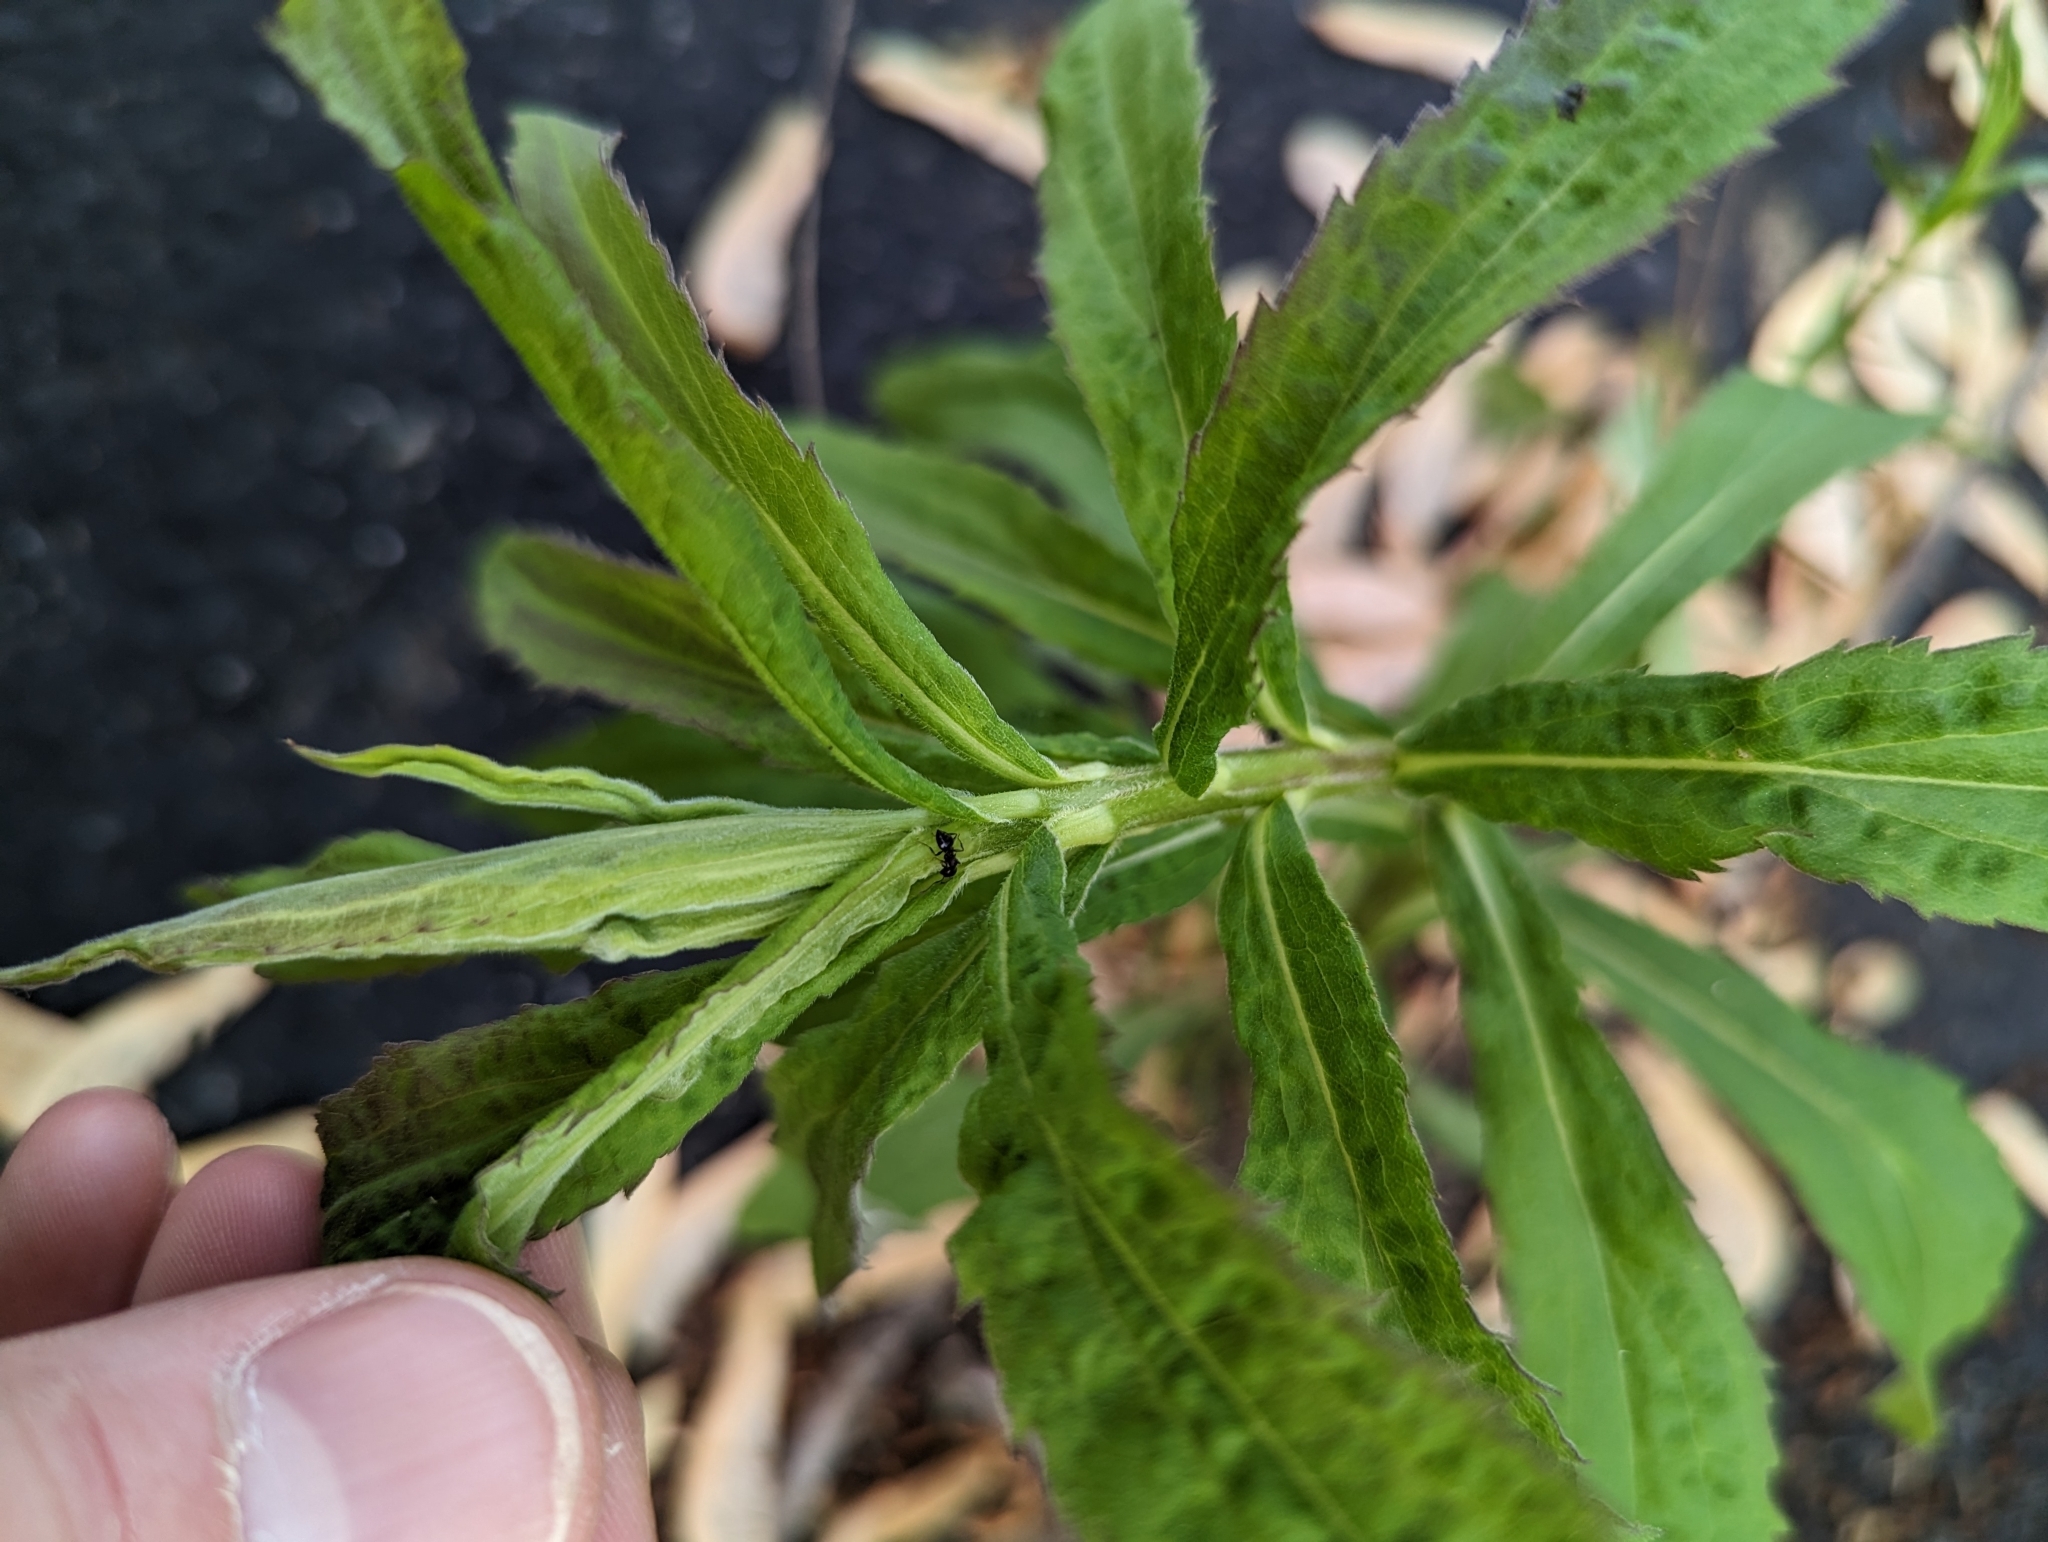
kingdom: Animalia
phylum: Arthropoda
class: Insecta
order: Hymenoptera
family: Formicidae
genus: Crematogaster
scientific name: Crematogaster
